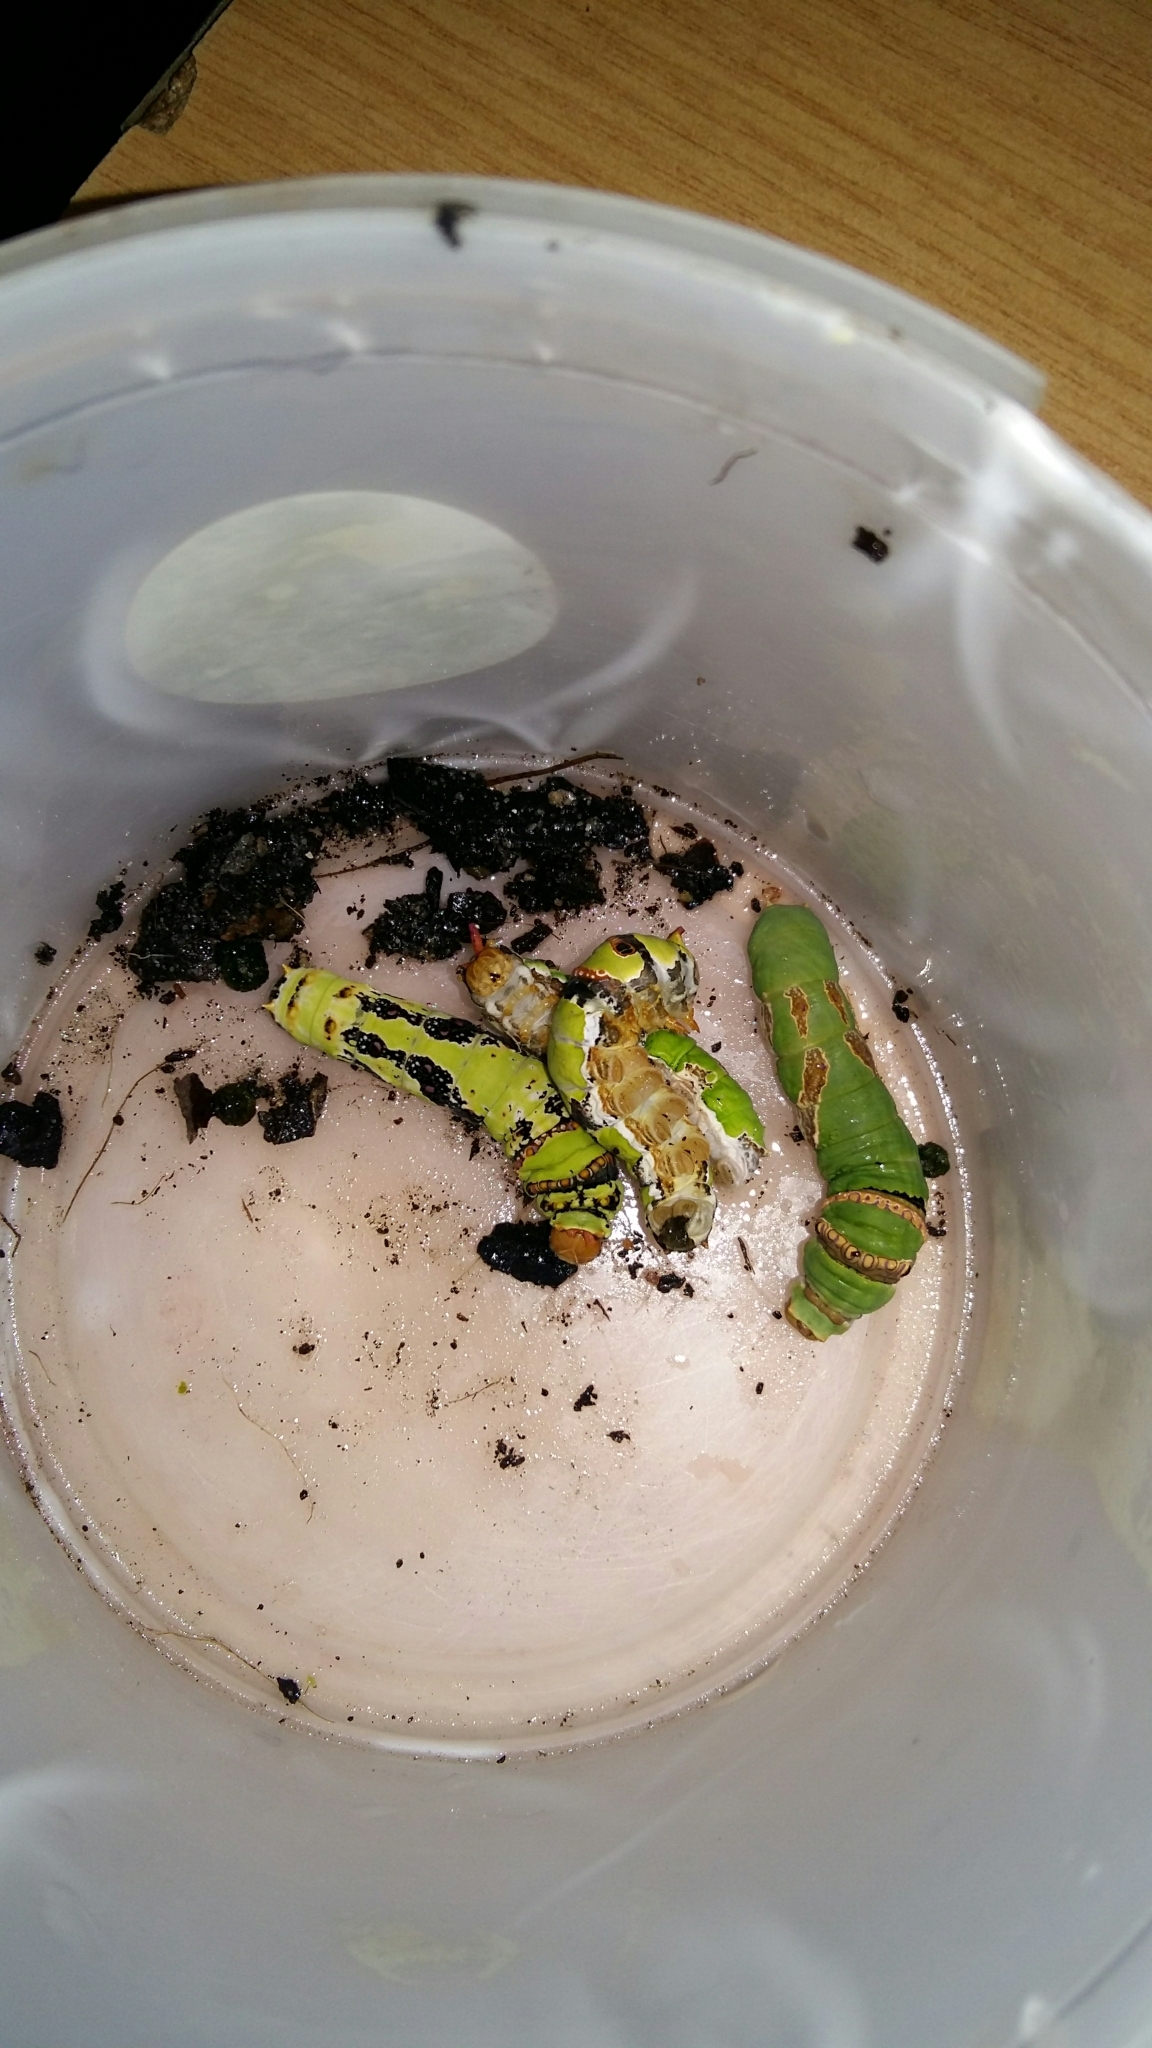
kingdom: Animalia
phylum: Arthropoda
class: Insecta
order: Lepidoptera
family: Papilionidae
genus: Papilio
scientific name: Papilio demodocus
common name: Christmas butterfly
